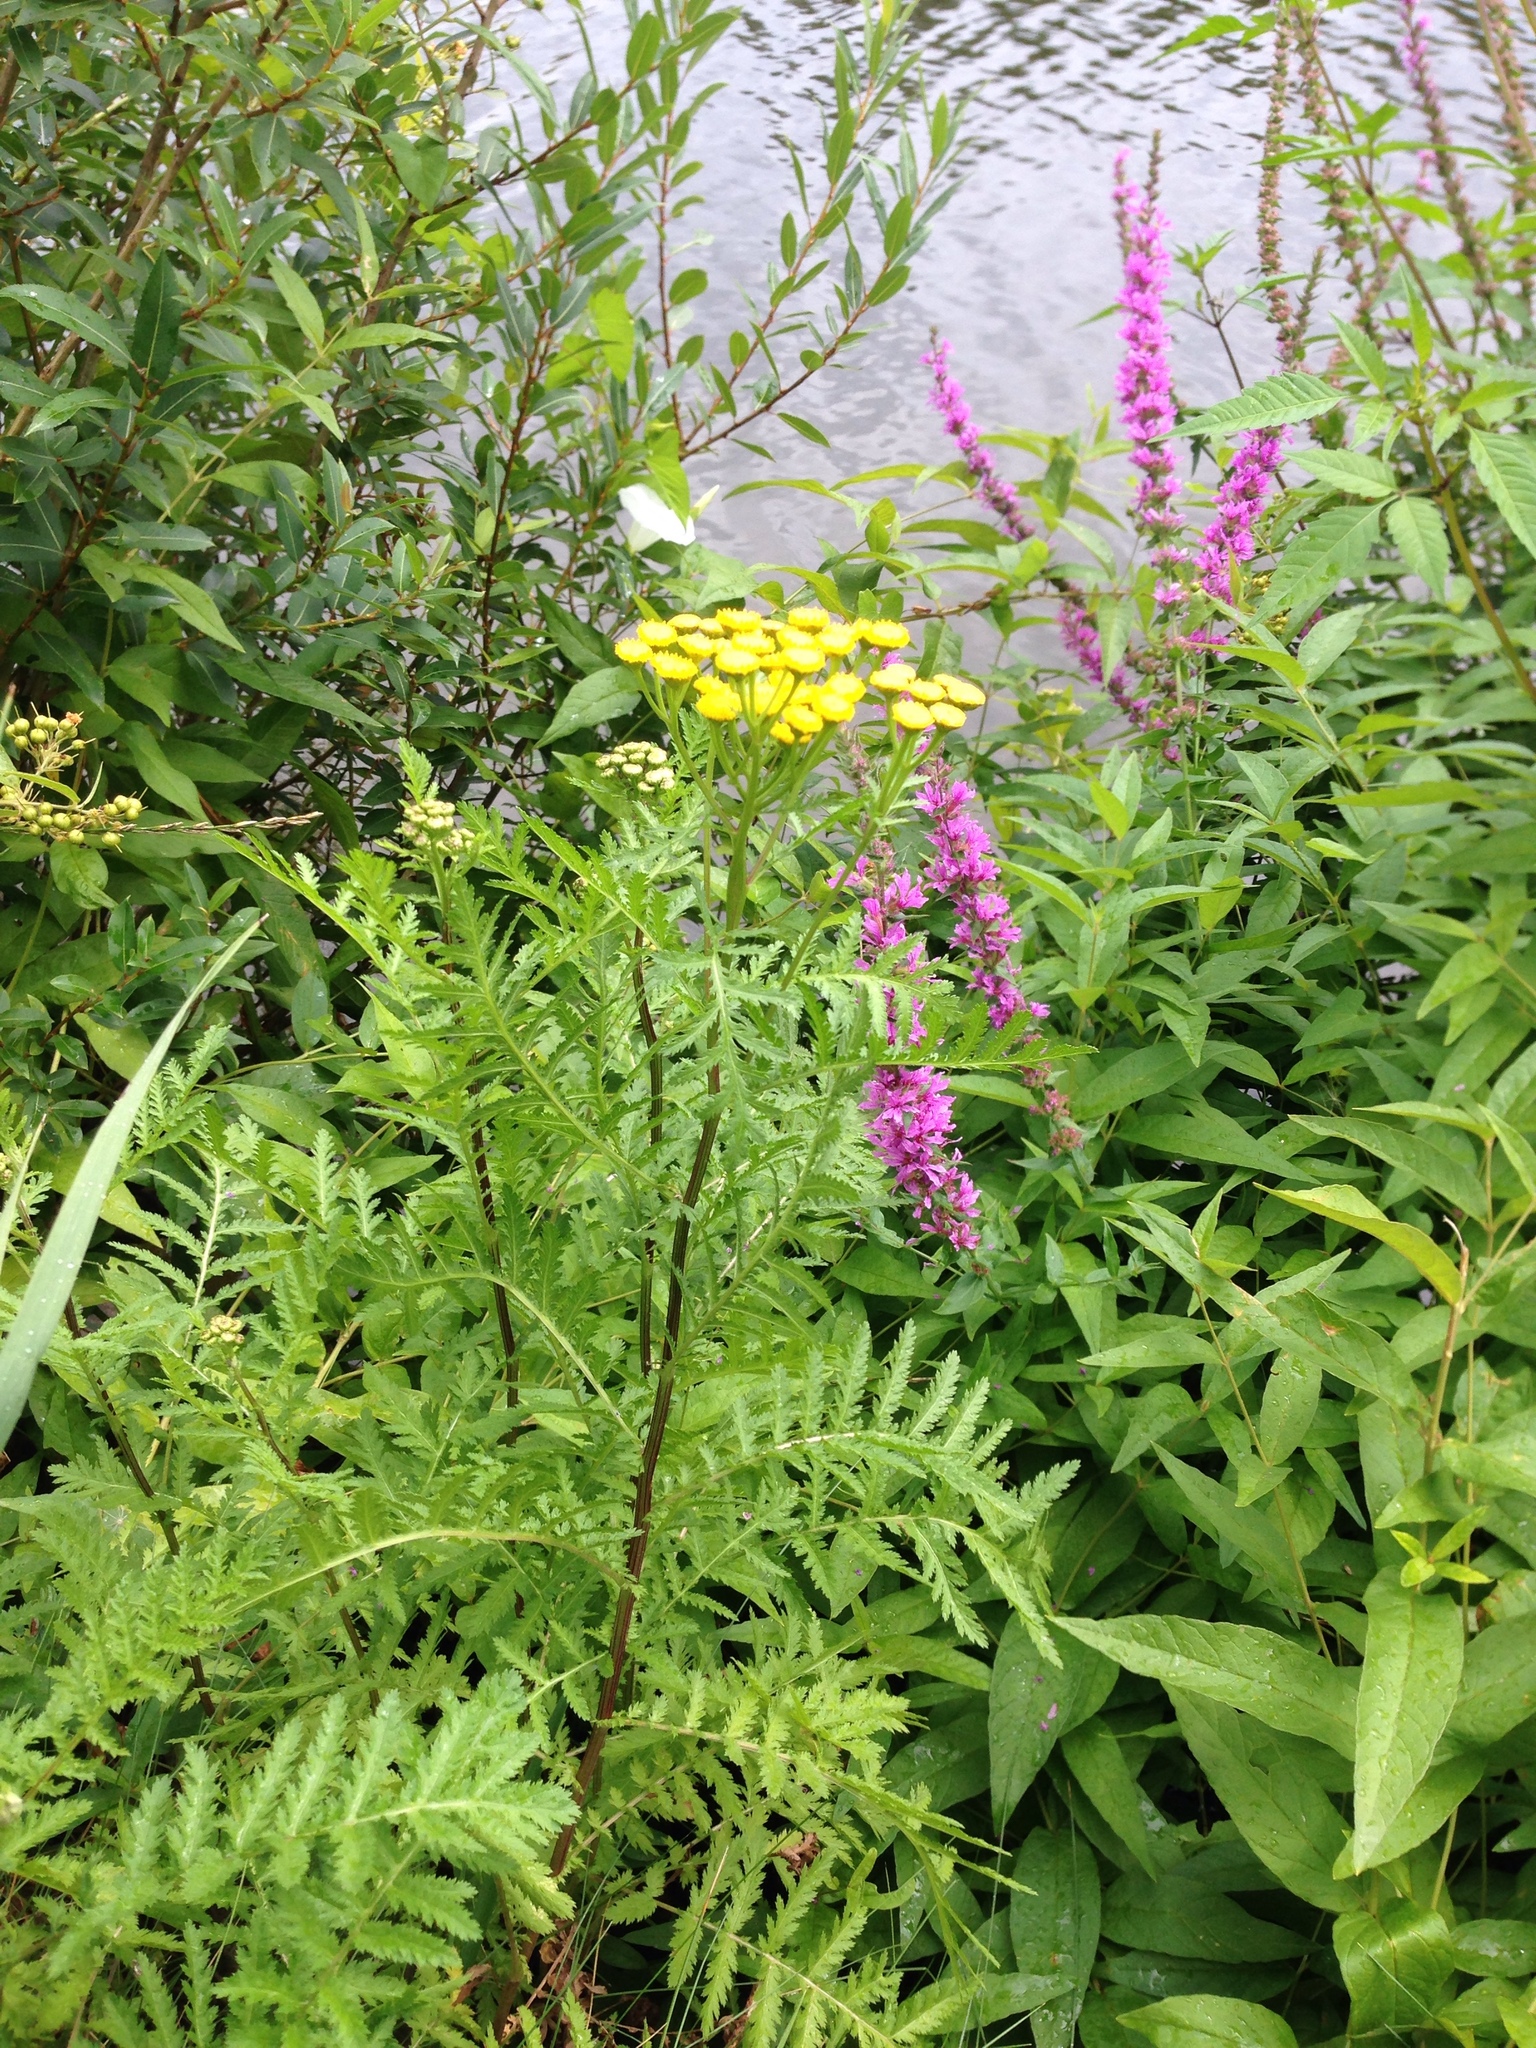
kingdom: Plantae
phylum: Tracheophyta
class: Magnoliopsida
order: Asterales
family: Asteraceae
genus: Tanacetum
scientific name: Tanacetum vulgare
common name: Common tansy
